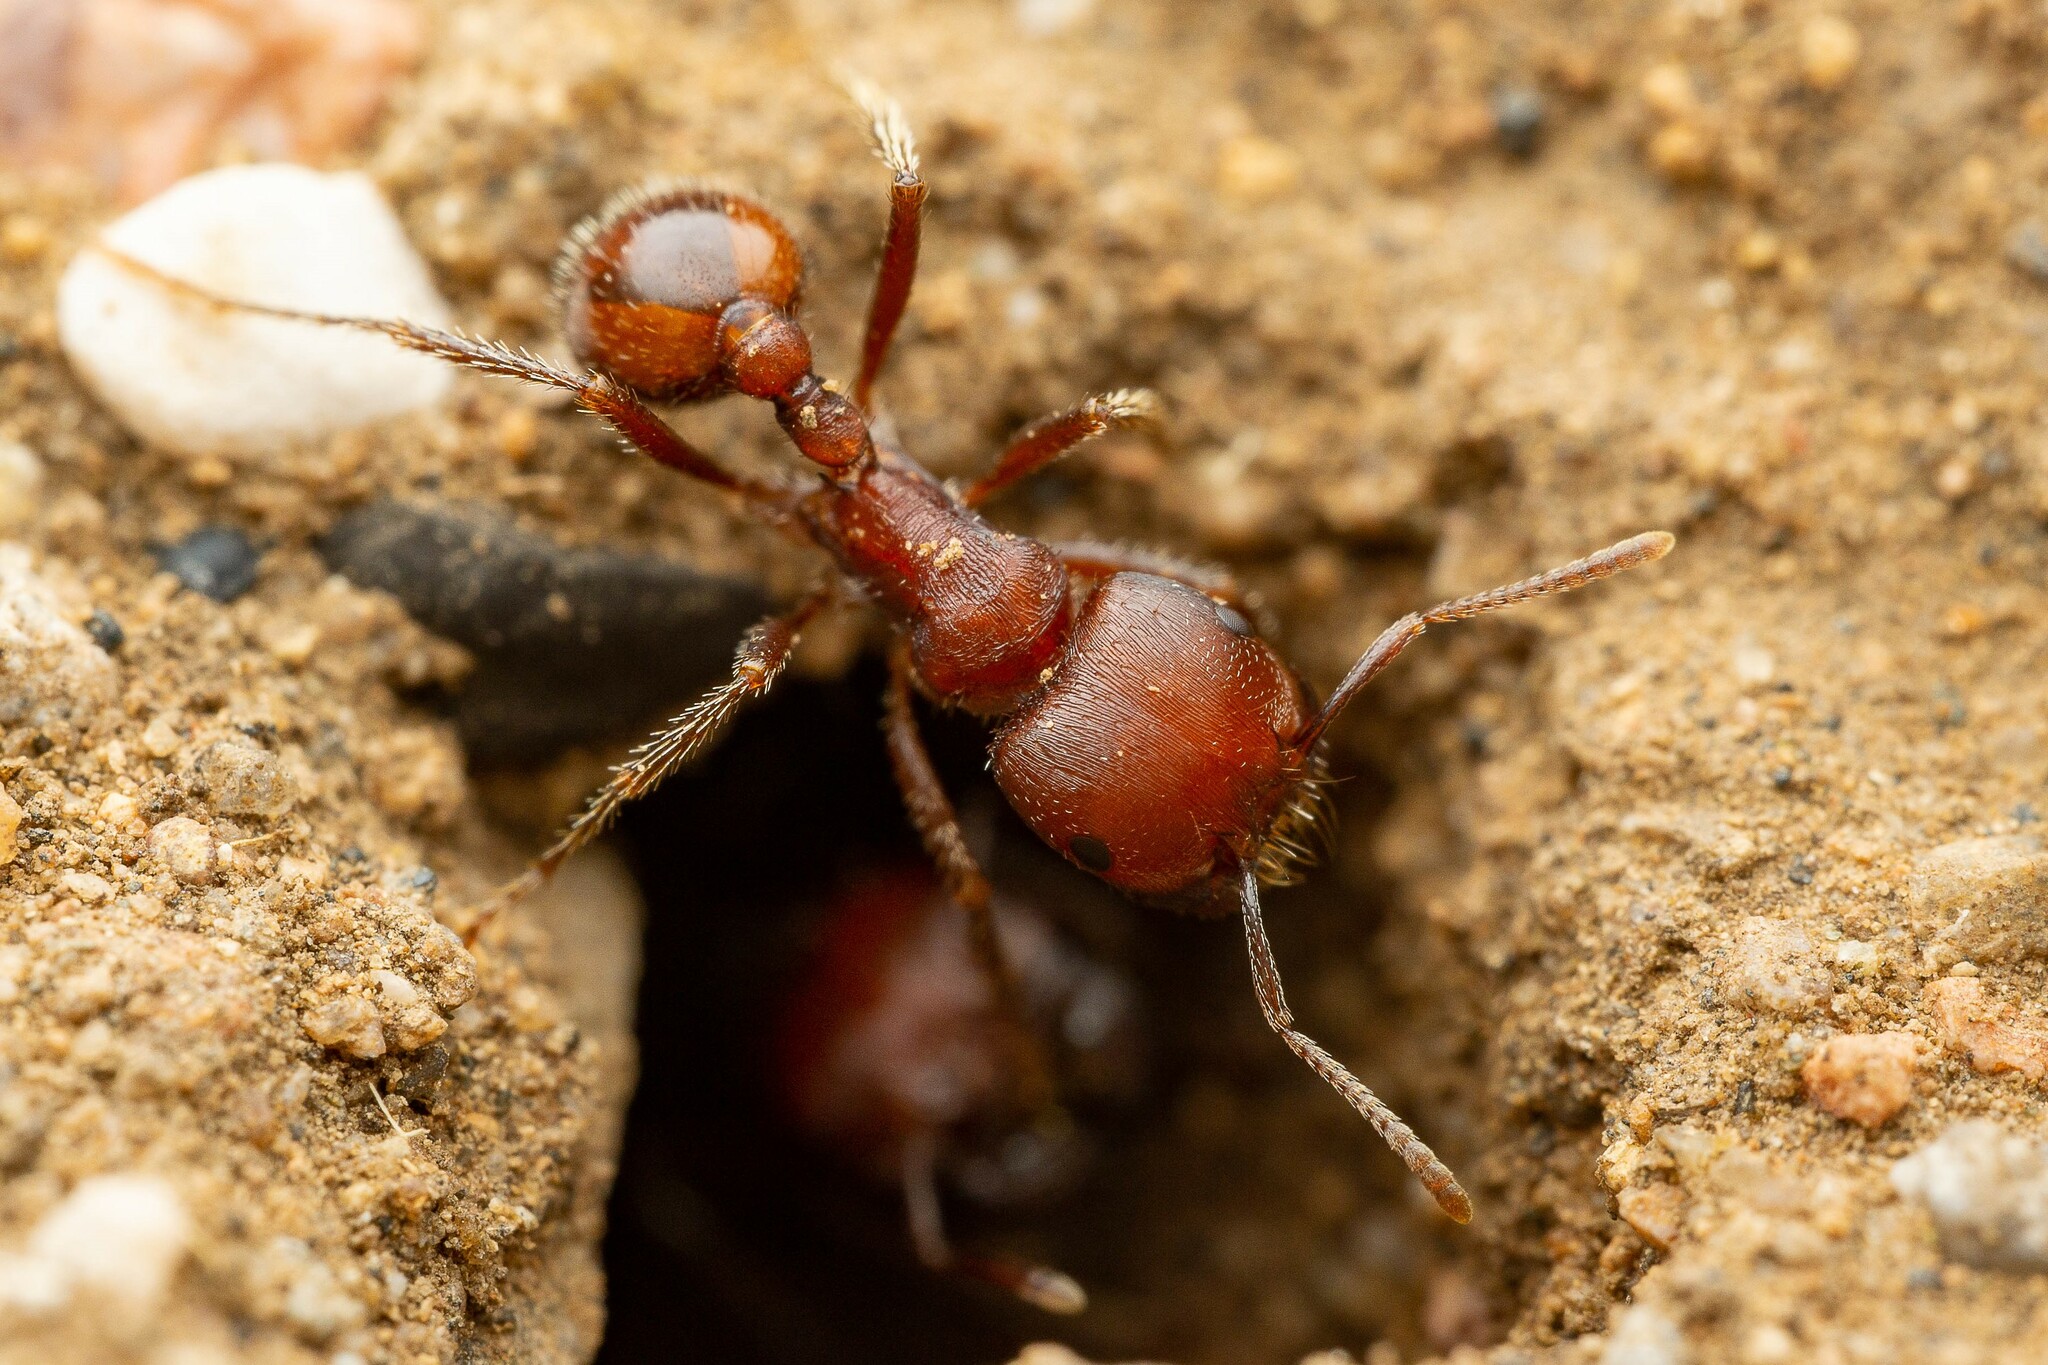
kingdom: Animalia
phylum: Arthropoda
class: Insecta
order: Hymenoptera
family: Formicidae
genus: Pogonomyrmex
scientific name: Pogonomyrmex barbatus
